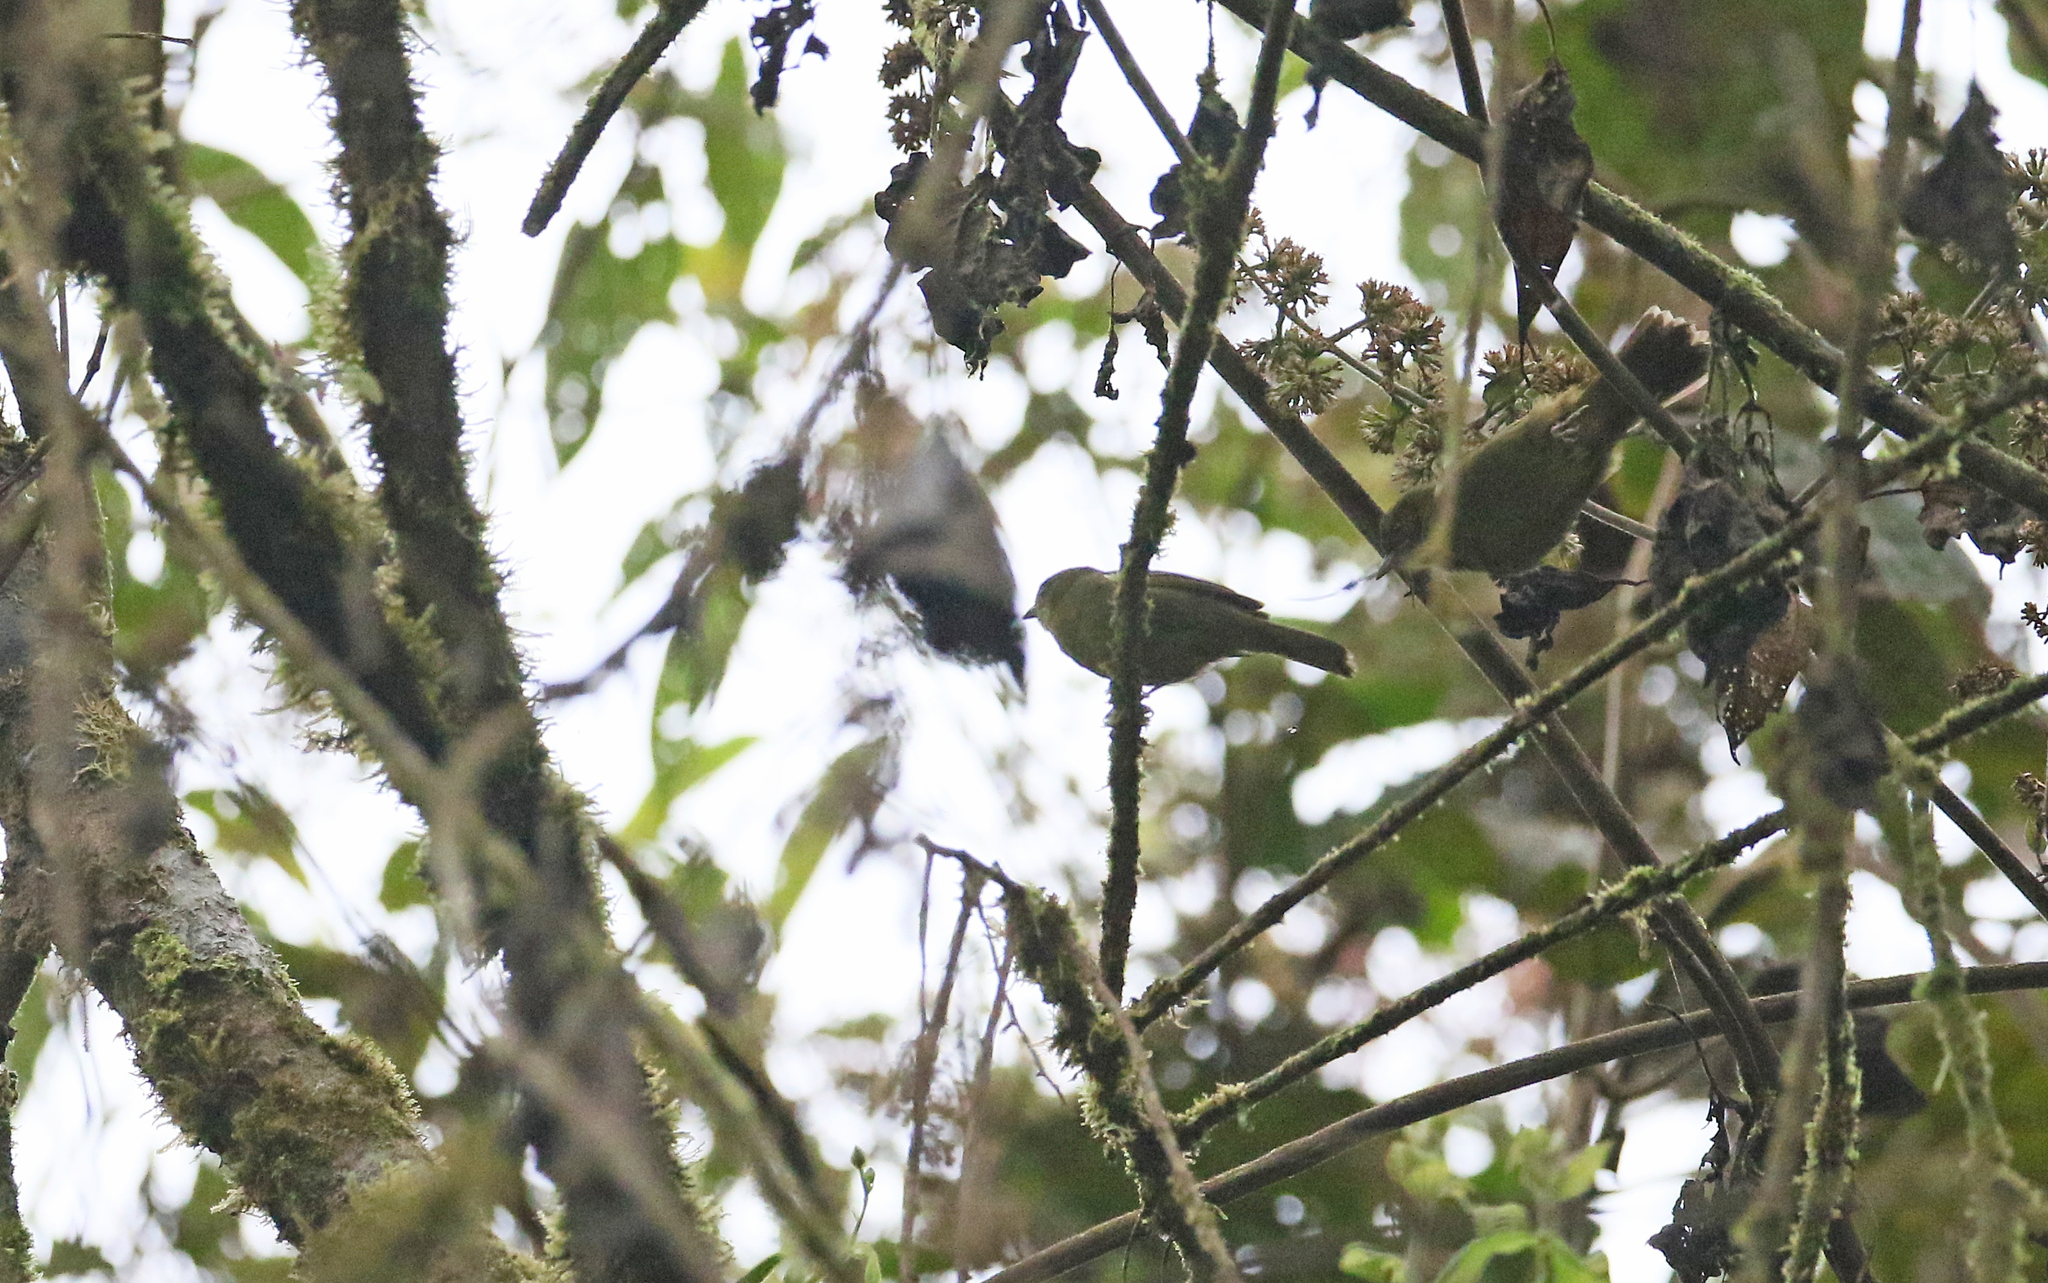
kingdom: Animalia
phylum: Chordata
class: Aves
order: Passeriformes
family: Thraupidae
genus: Sphenopsis
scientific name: Sphenopsis frontalis
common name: Oleaginous hemispingus
